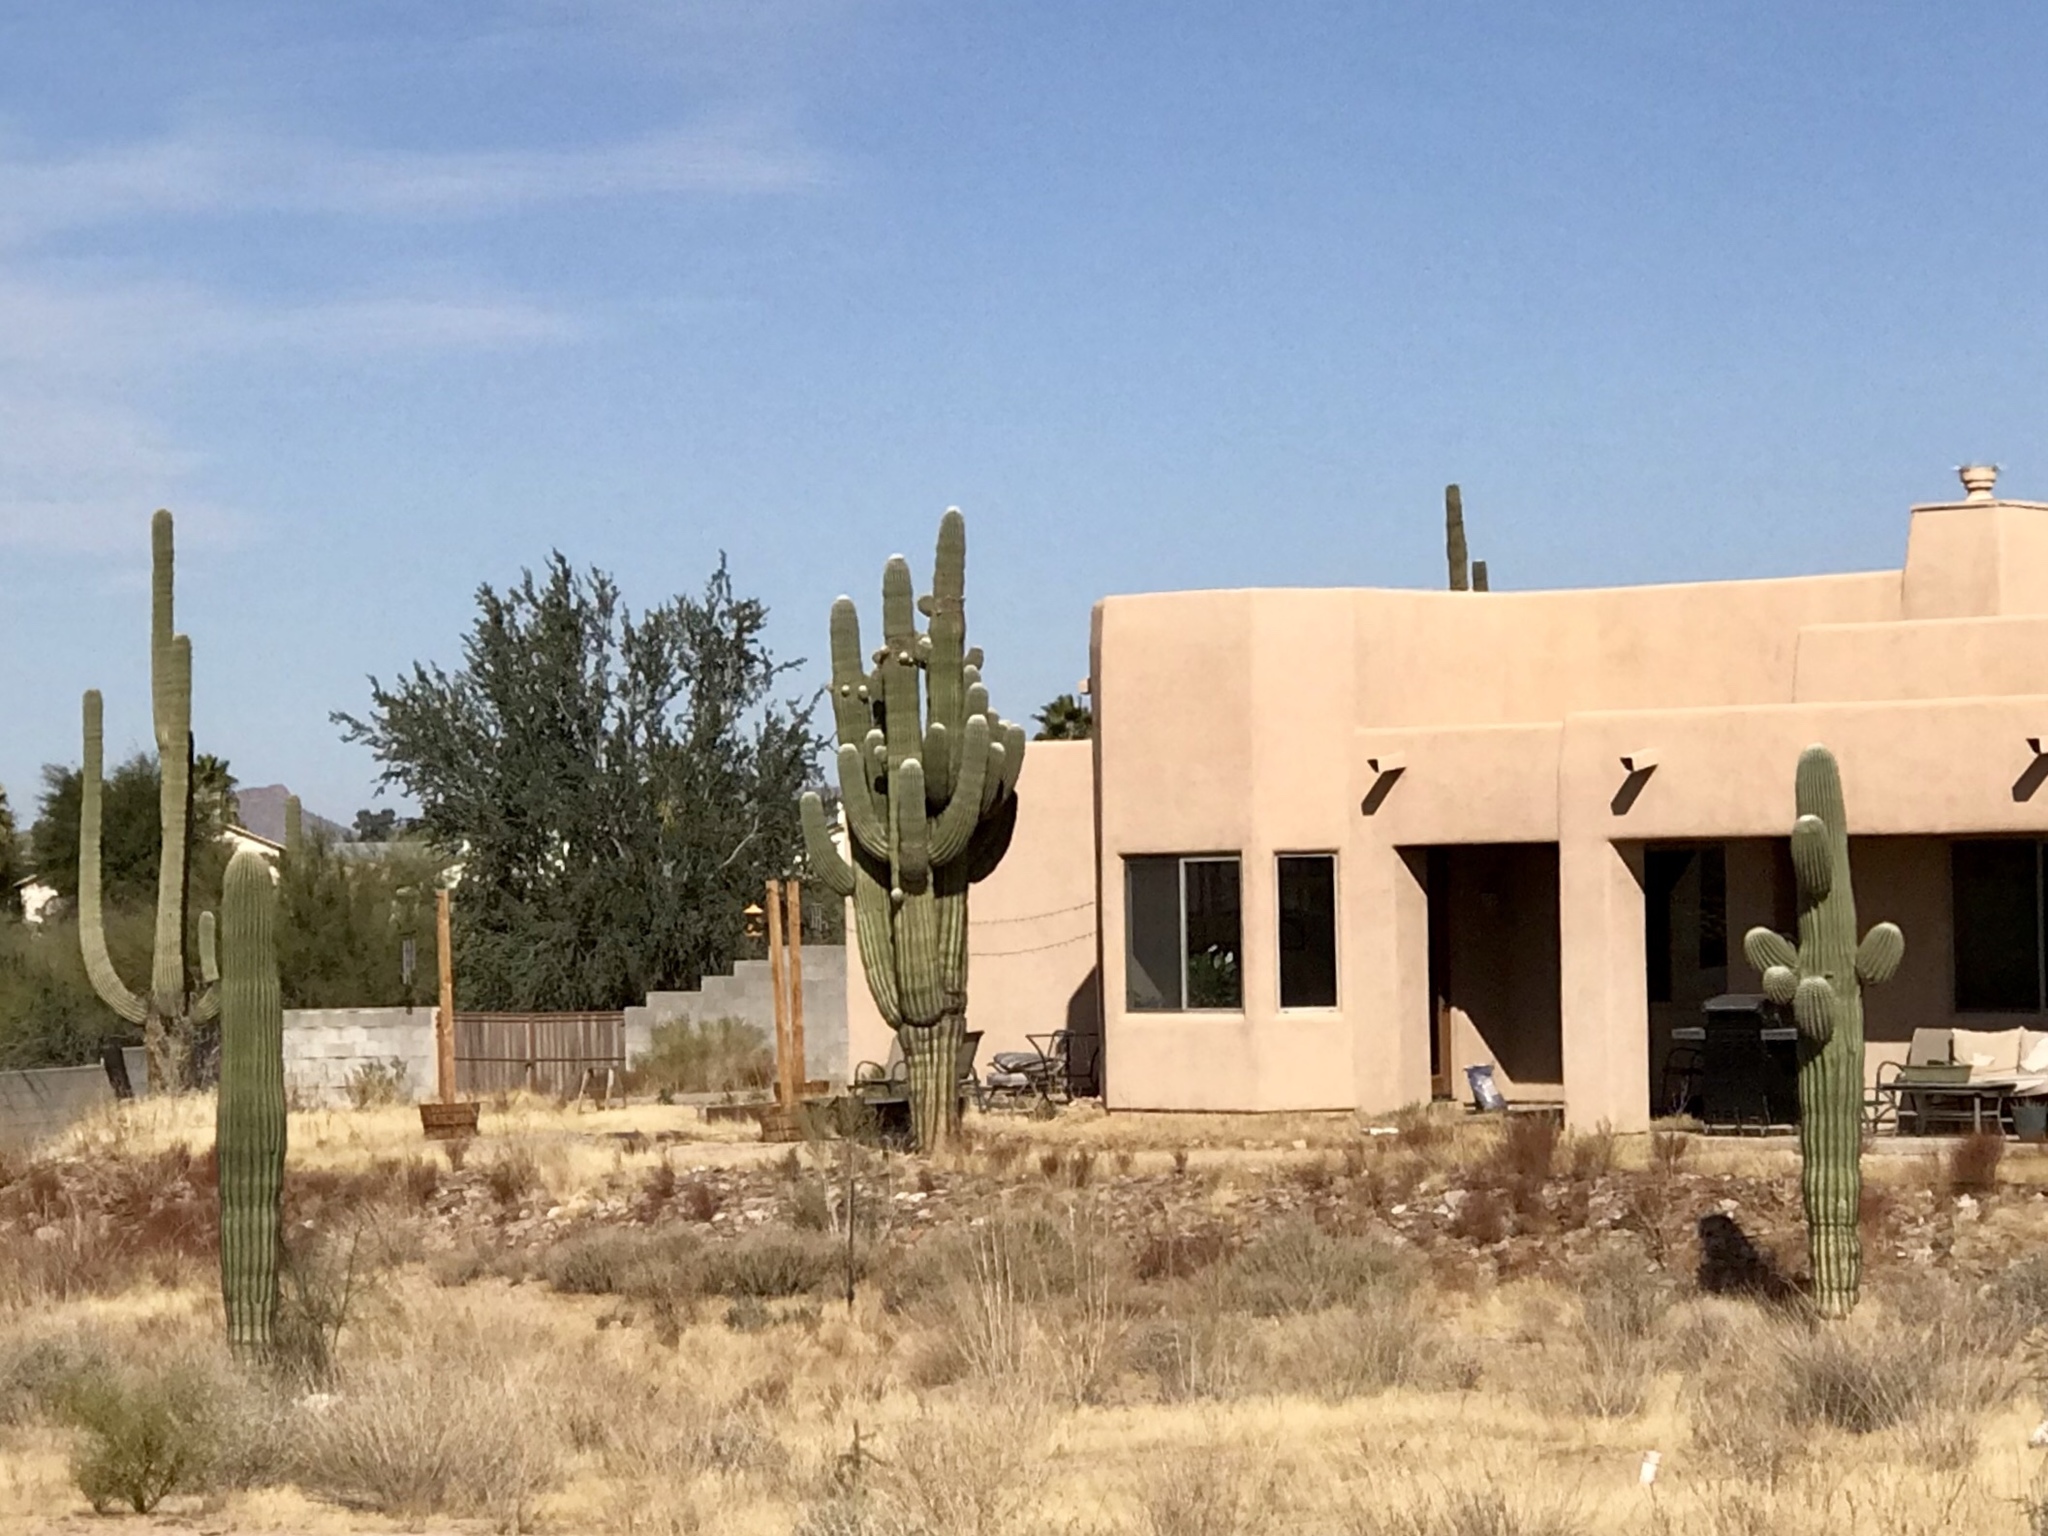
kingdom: Plantae
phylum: Tracheophyta
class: Magnoliopsida
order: Caryophyllales
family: Cactaceae
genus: Carnegiea
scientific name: Carnegiea gigantea
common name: Saguaro
